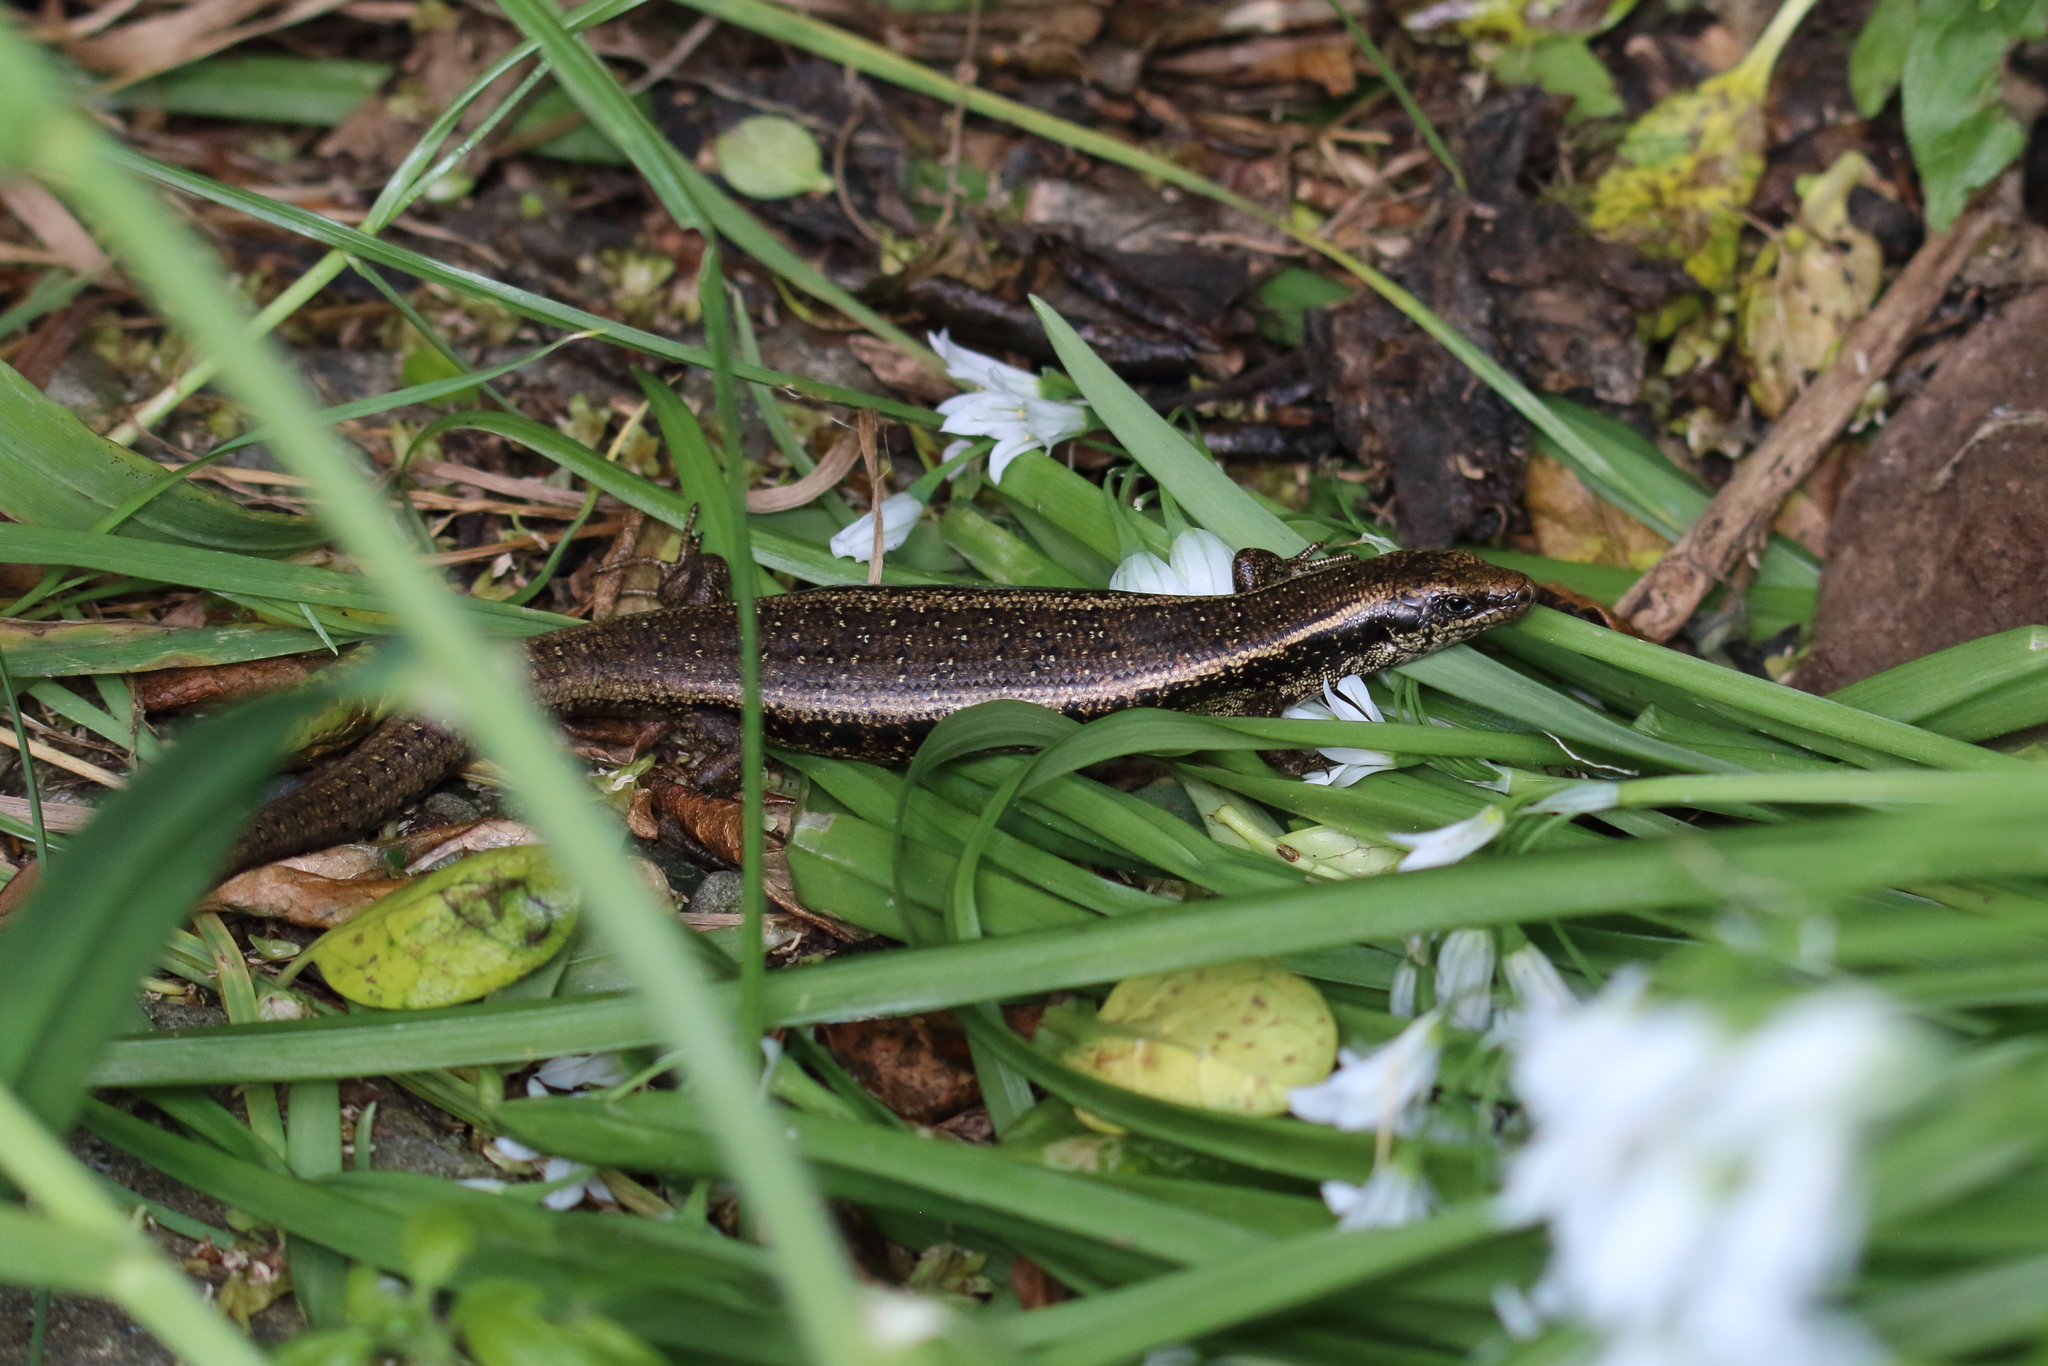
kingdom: Animalia
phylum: Chordata
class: Squamata
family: Scincidae
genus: Oligosoma
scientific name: Oligosoma kokowai
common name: Northern spotted skink
